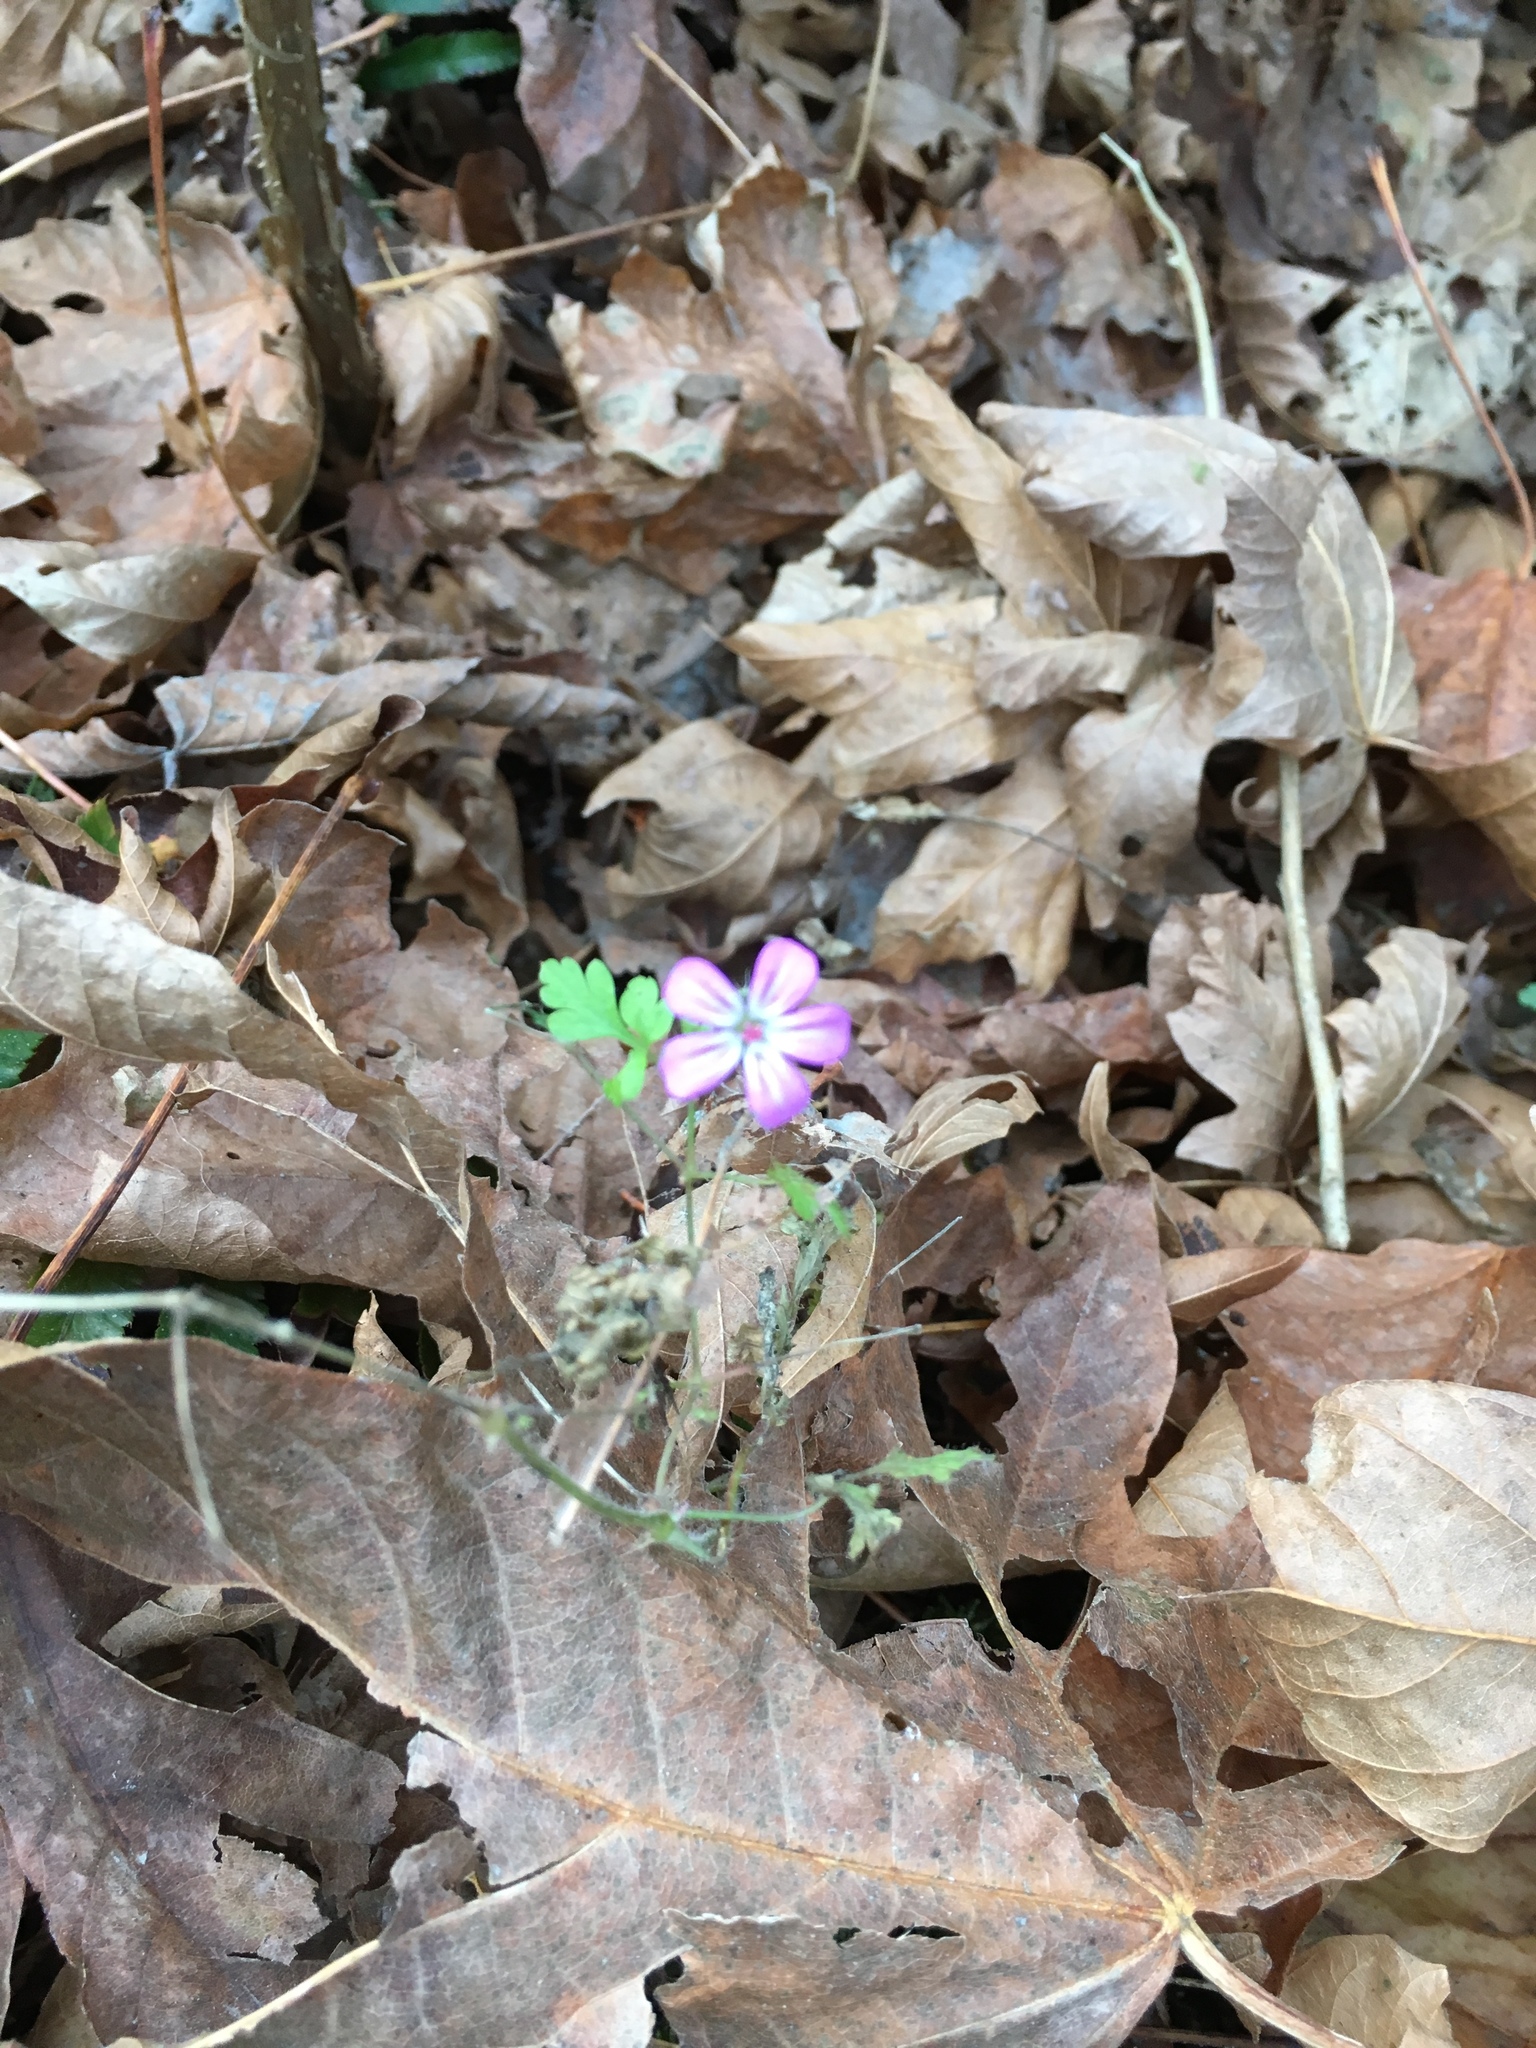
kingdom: Plantae
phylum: Tracheophyta
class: Magnoliopsida
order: Geraniales
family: Geraniaceae
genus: Geranium
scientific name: Geranium robertianum
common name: Herb-robert
